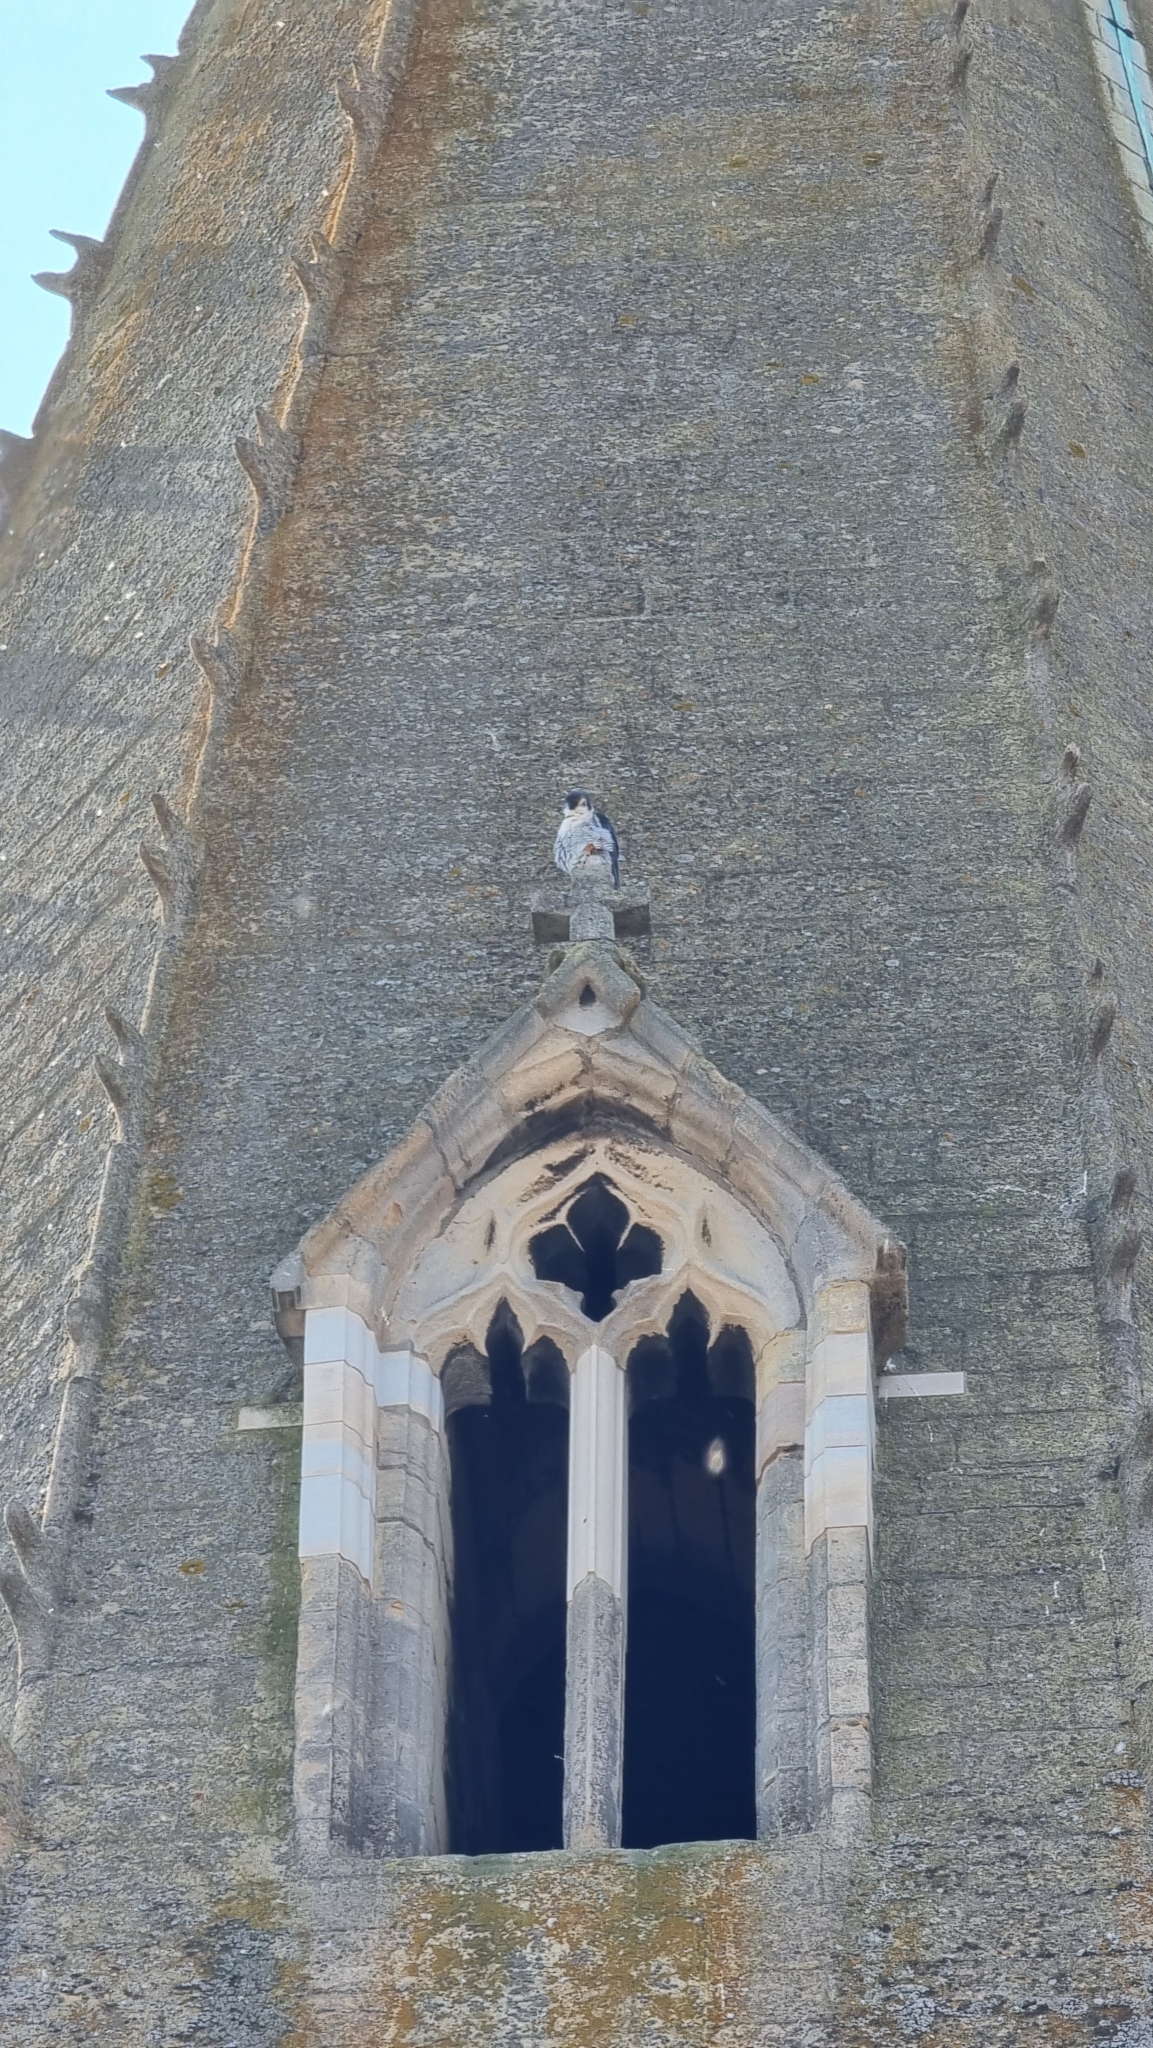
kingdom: Animalia
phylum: Chordata
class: Aves
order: Falconiformes
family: Falconidae
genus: Falco
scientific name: Falco peregrinus
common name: Peregrine falcon
